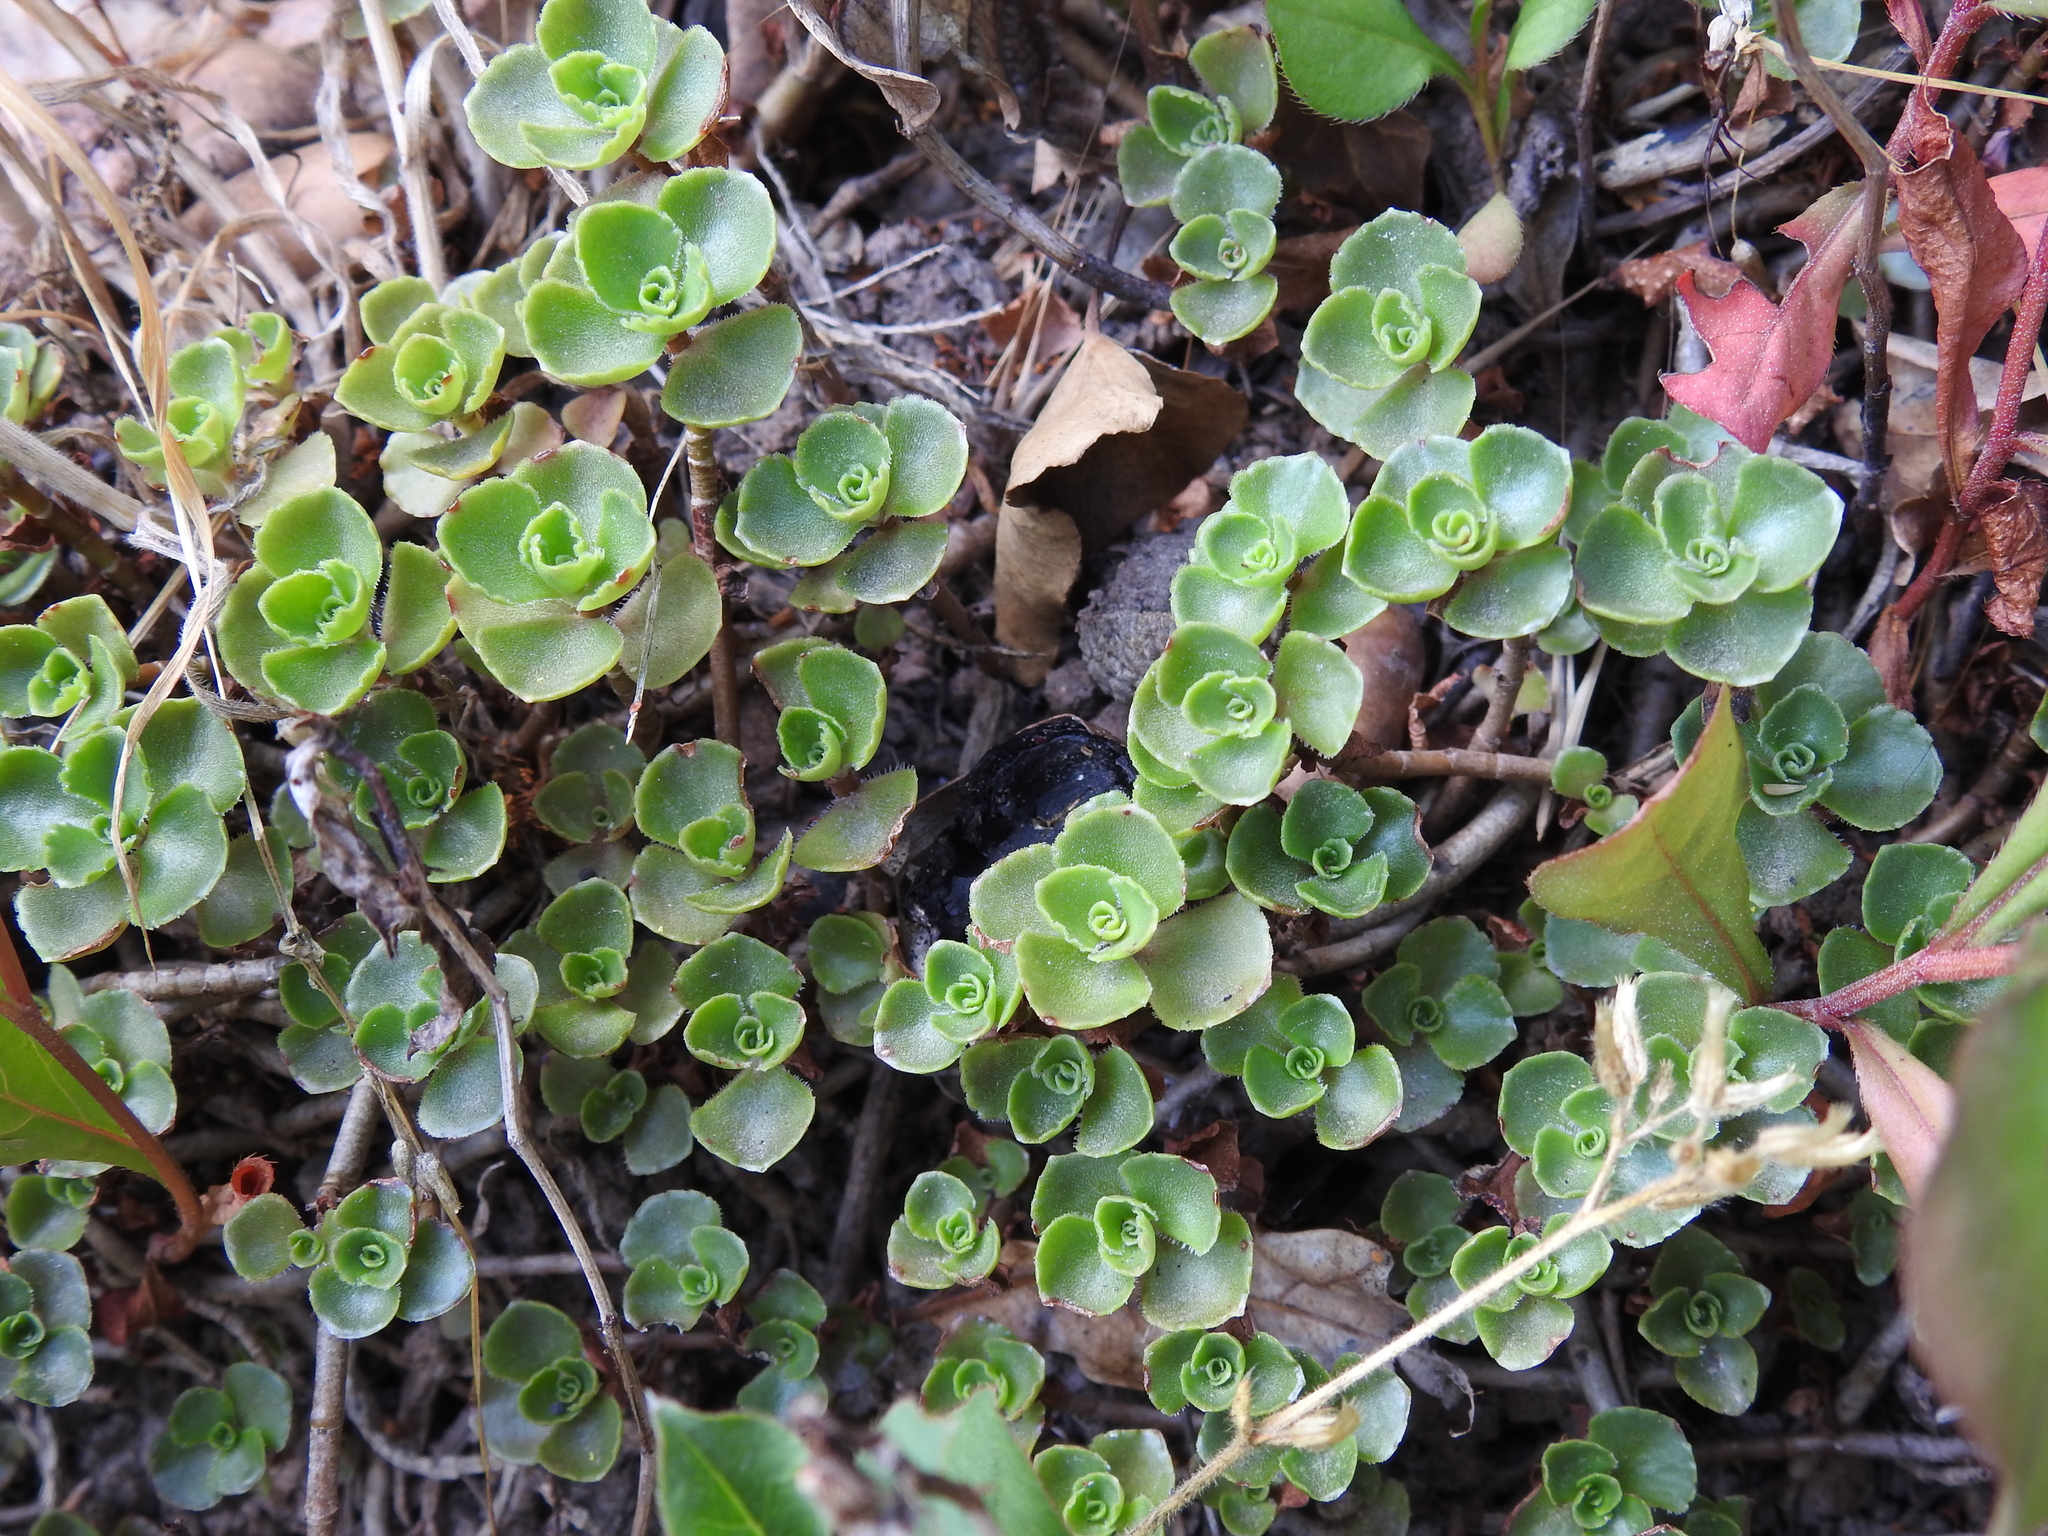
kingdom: Plantae
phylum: Tracheophyta
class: Magnoliopsida
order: Saxifragales
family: Crassulaceae
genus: Phedimus
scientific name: Phedimus spurius
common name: Caucasian stonecrop
